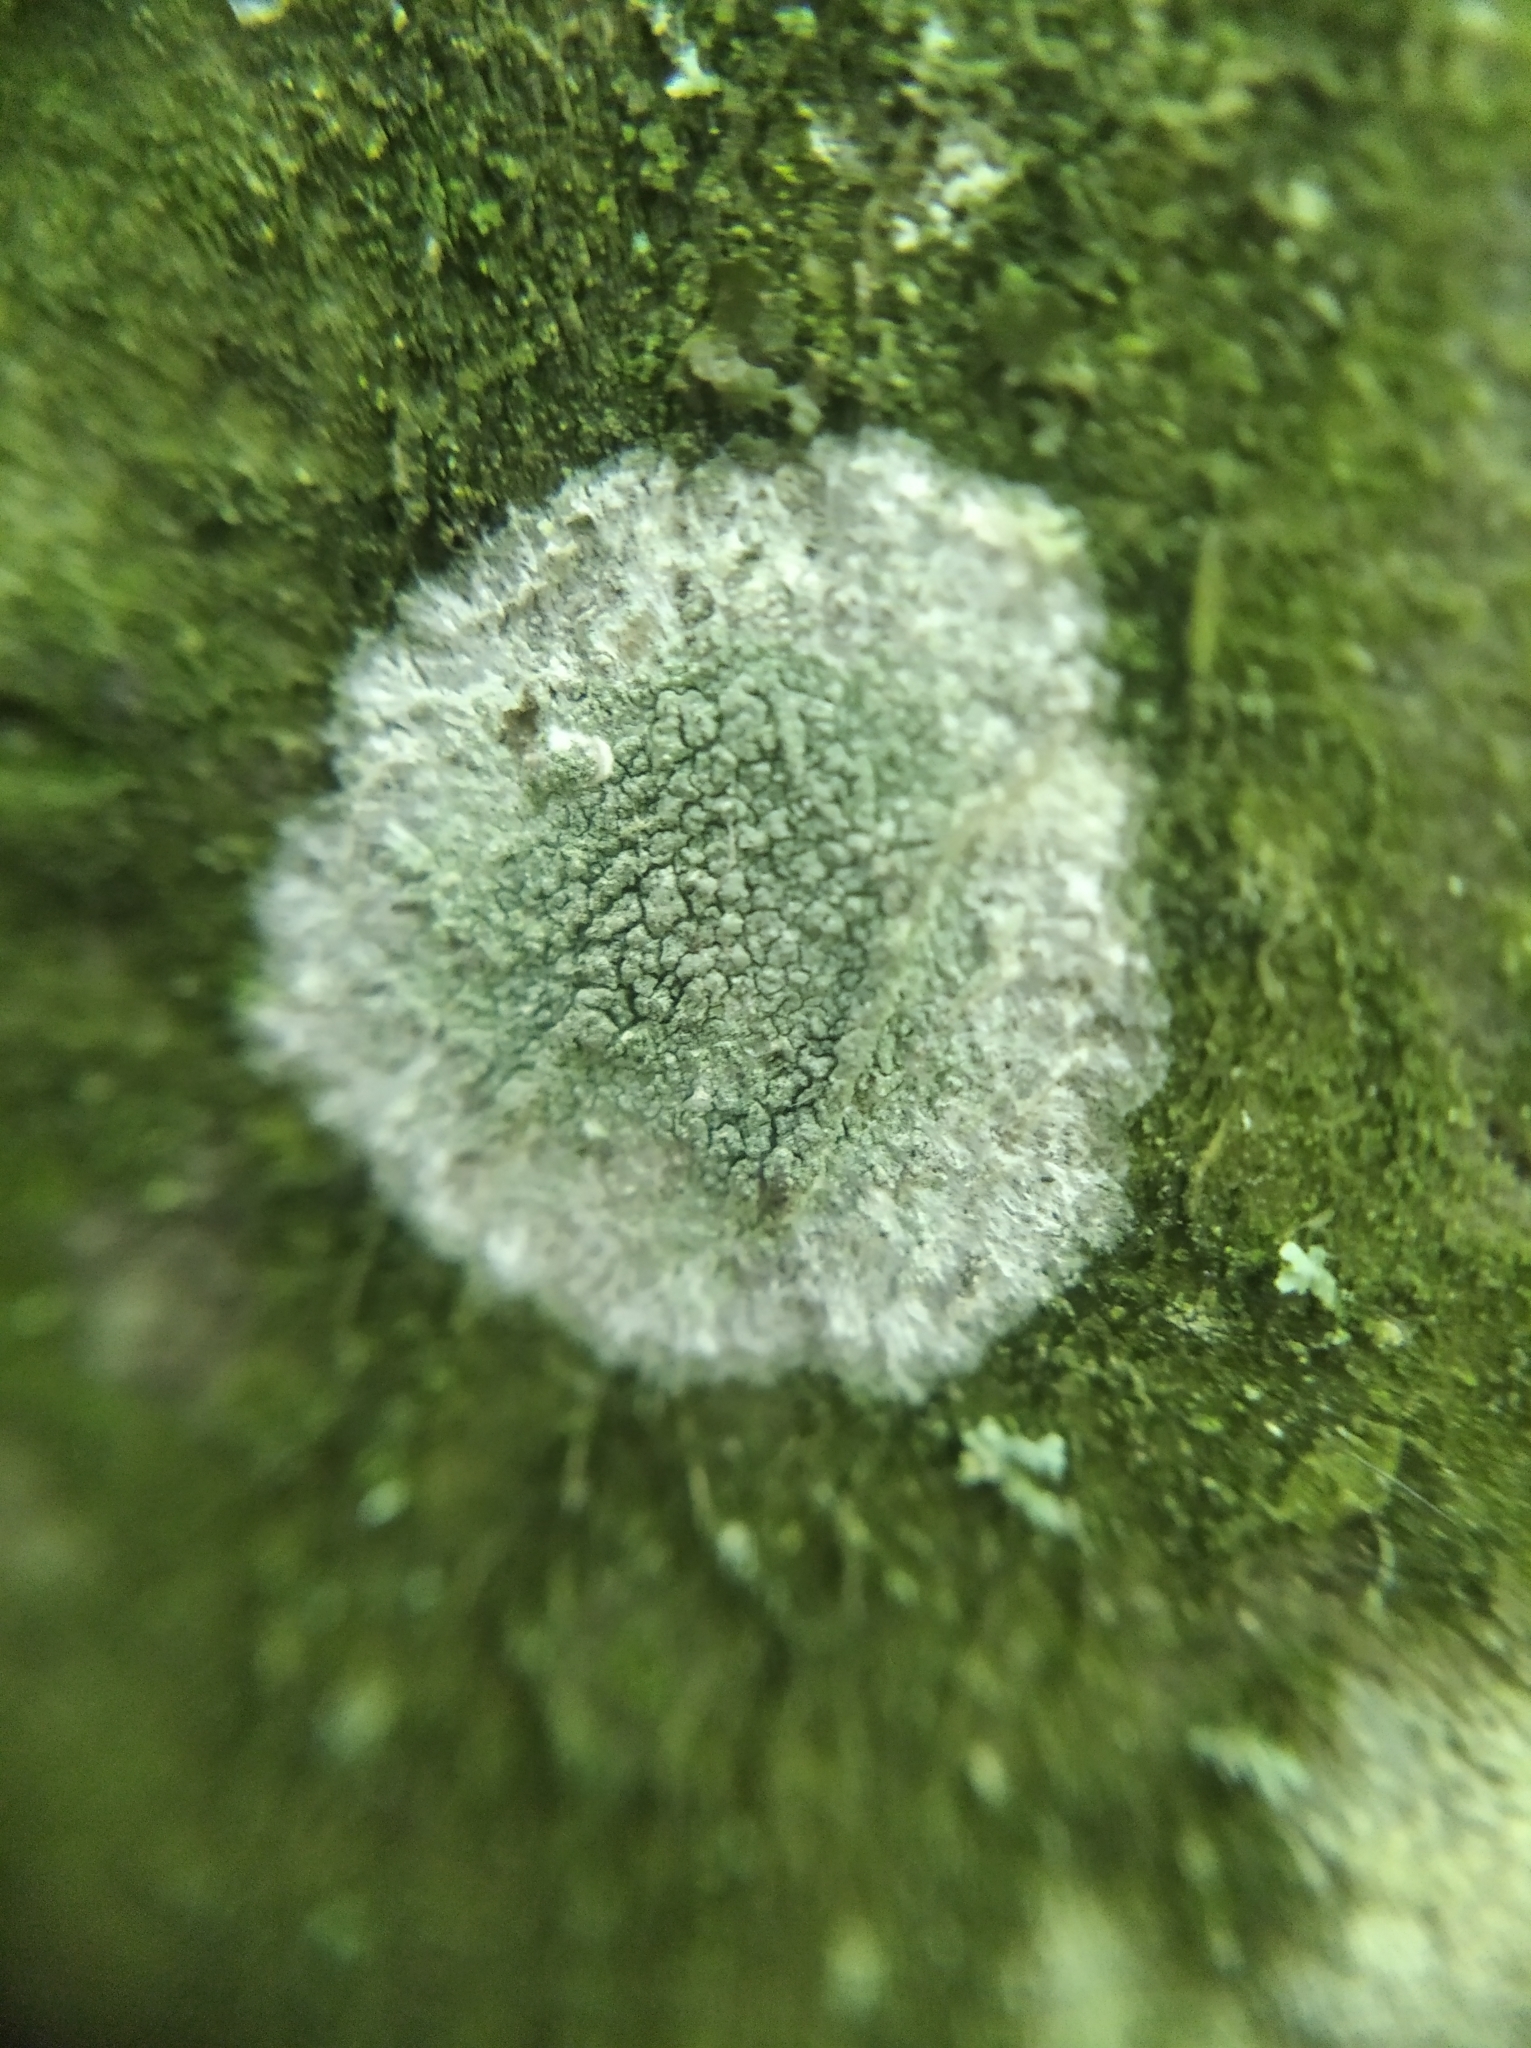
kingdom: Fungi
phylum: Ascomycota
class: Lecanoromycetes
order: Ostropales
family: Phlyctidaceae
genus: Phlyctis
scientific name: Phlyctis argena
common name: Whitewash lichen
